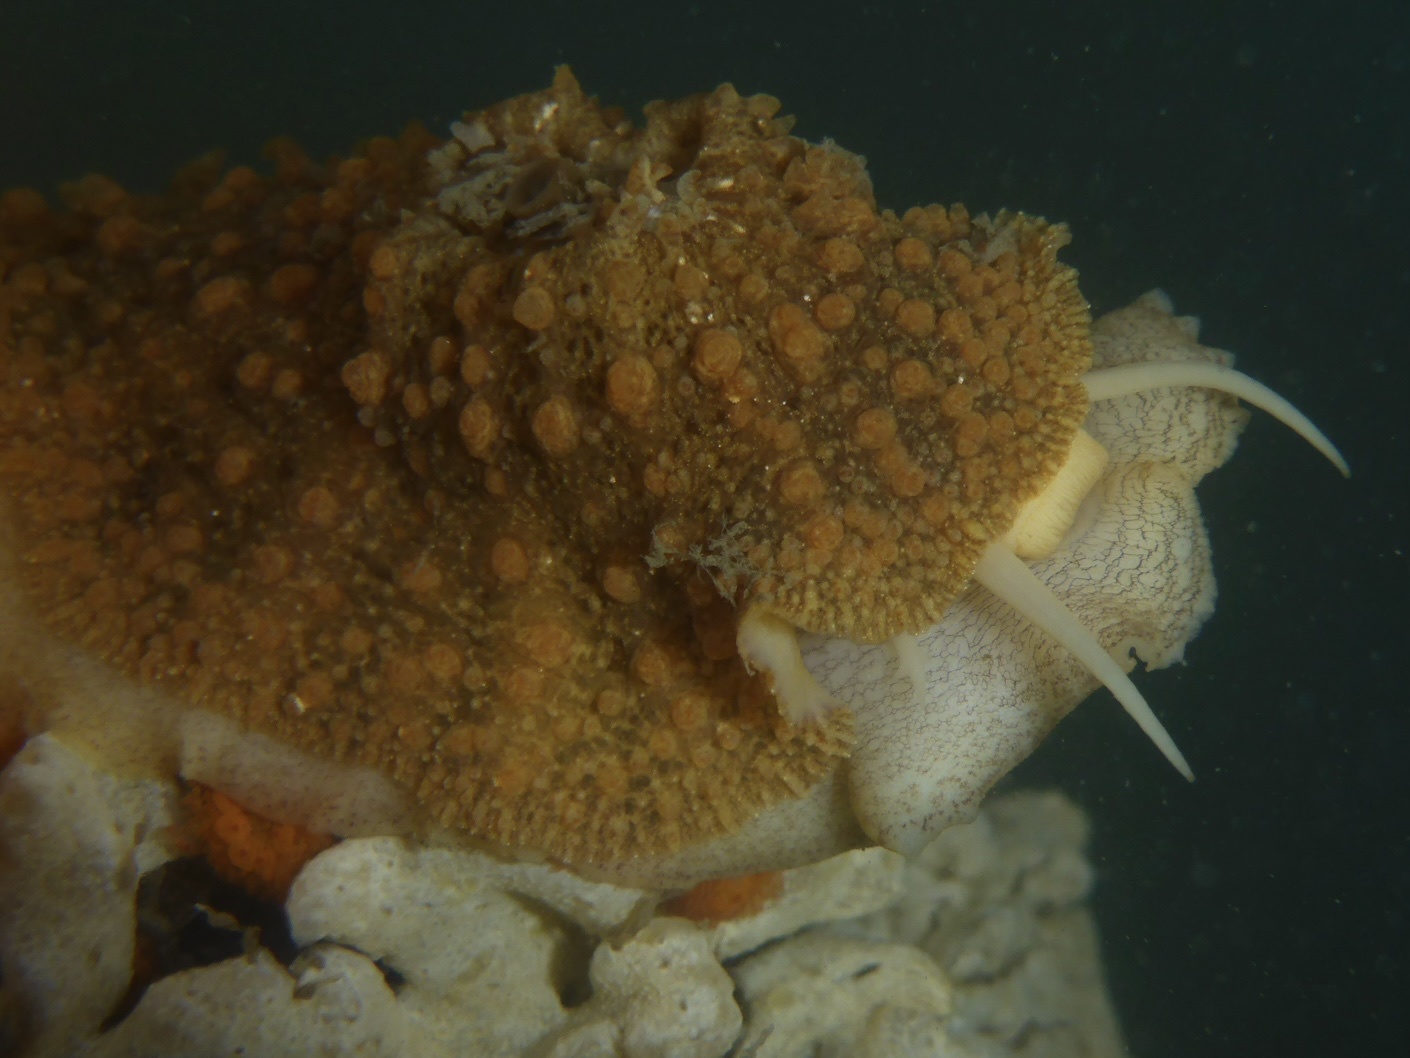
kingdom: Animalia
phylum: Mollusca
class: Gastropoda
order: Lepetellida
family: Fissurellidae
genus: Fissurellidea
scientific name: Fissurellidea bimaculata
